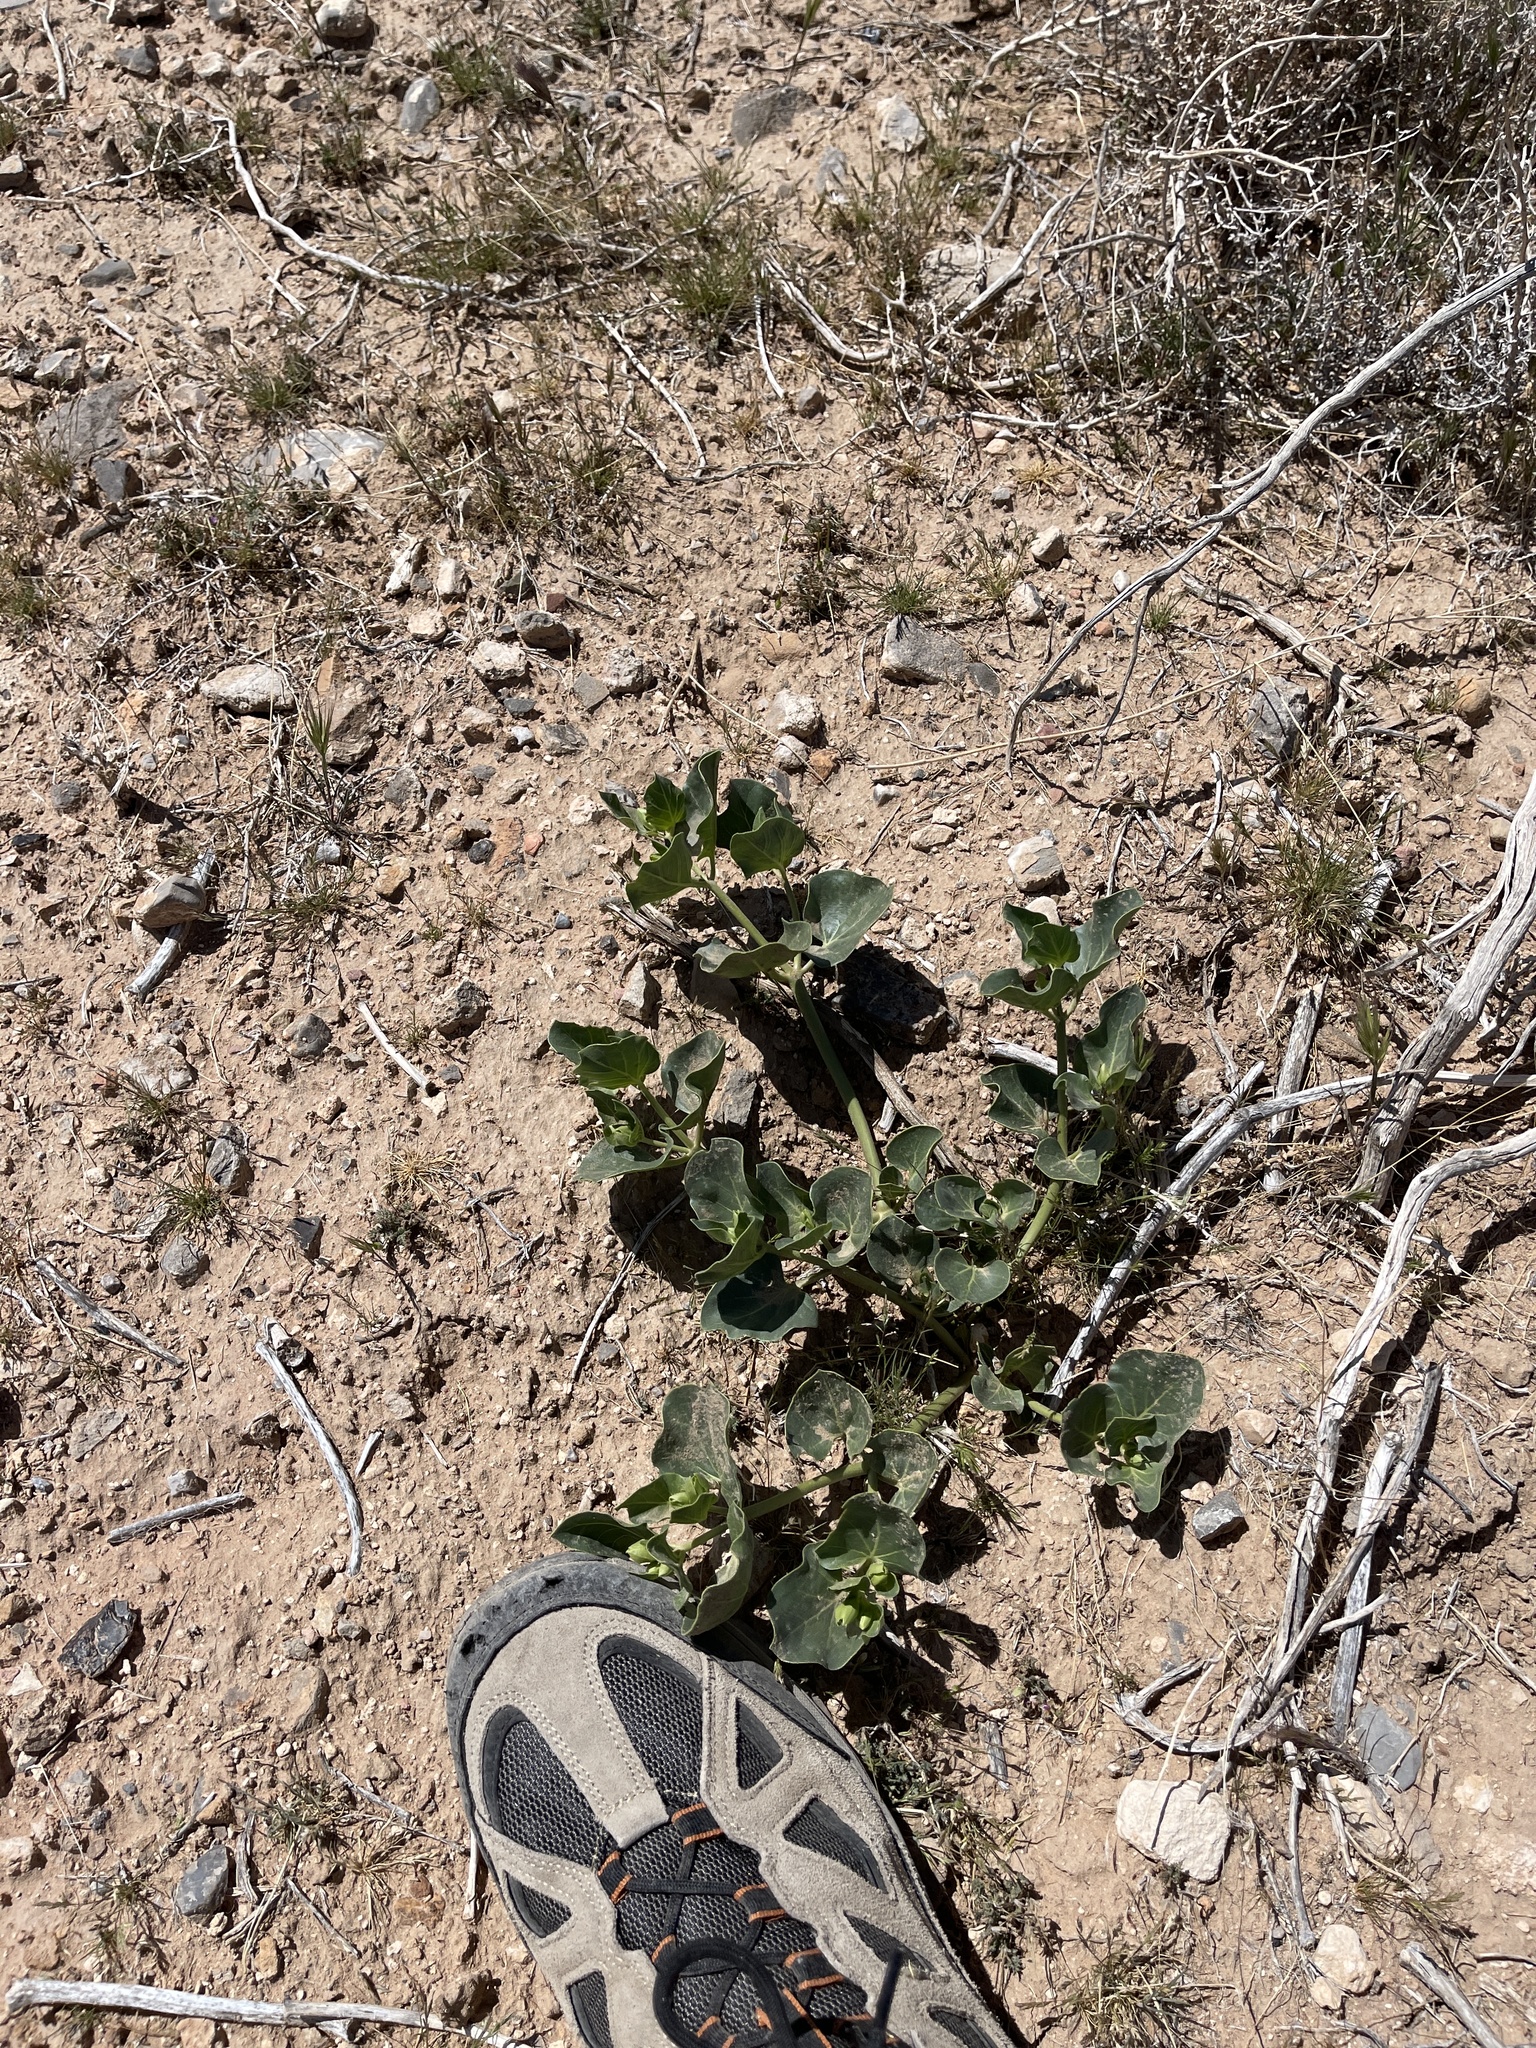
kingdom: Plantae
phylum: Tracheophyta
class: Magnoliopsida
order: Caryophyllales
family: Nyctaginaceae
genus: Mirabilis
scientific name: Mirabilis multiflora
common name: Froebel's four-o'clock
